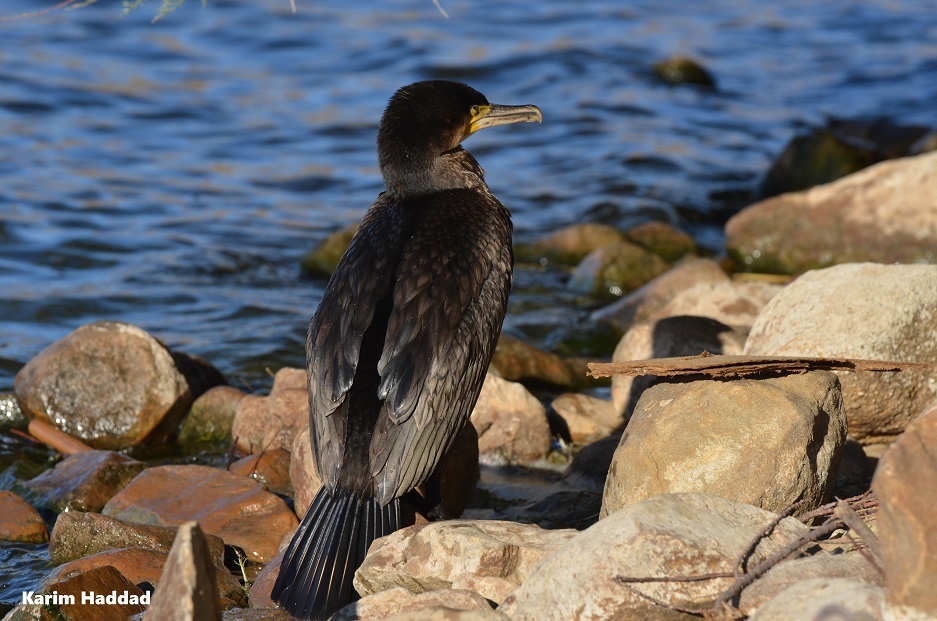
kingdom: Animalia
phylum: Chordata
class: Aves
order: Suliformes
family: Phalacrocoracidae
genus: Phalacrocorax
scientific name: Phalacrocorax carbo
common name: Great cormorant
